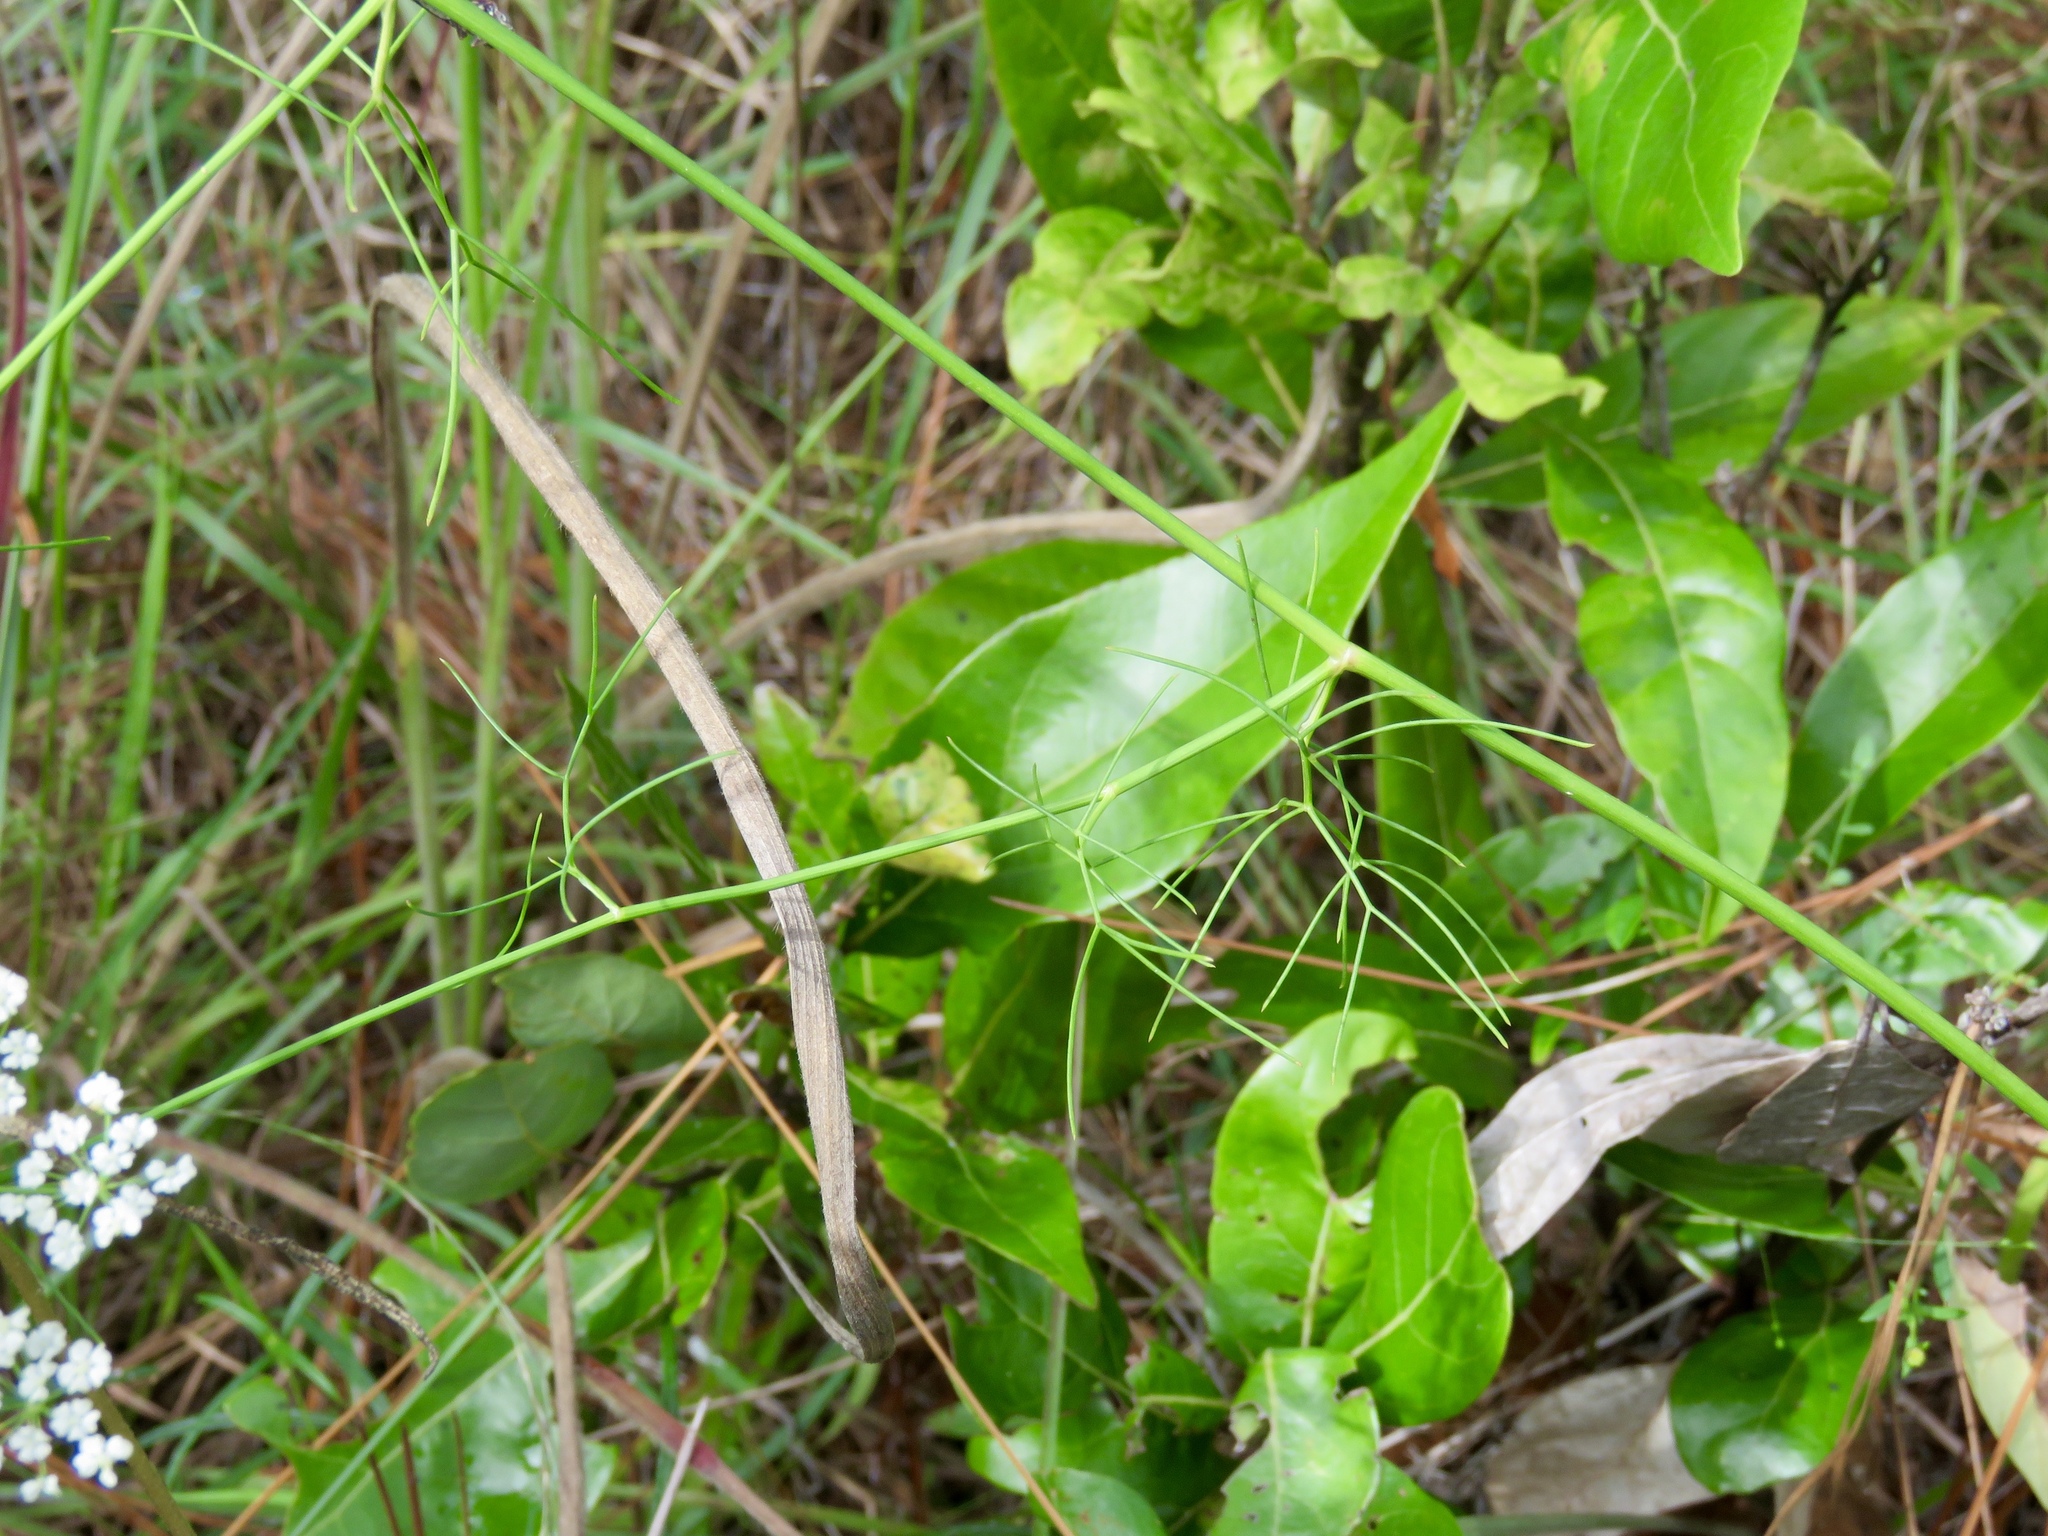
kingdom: Plantae
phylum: Tracheophyta
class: Magnoliopsida
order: Apiales
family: Apiaceae
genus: Ptilimnium
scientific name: Ptilimnium nuttallii
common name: Ozark bishop's-weed
